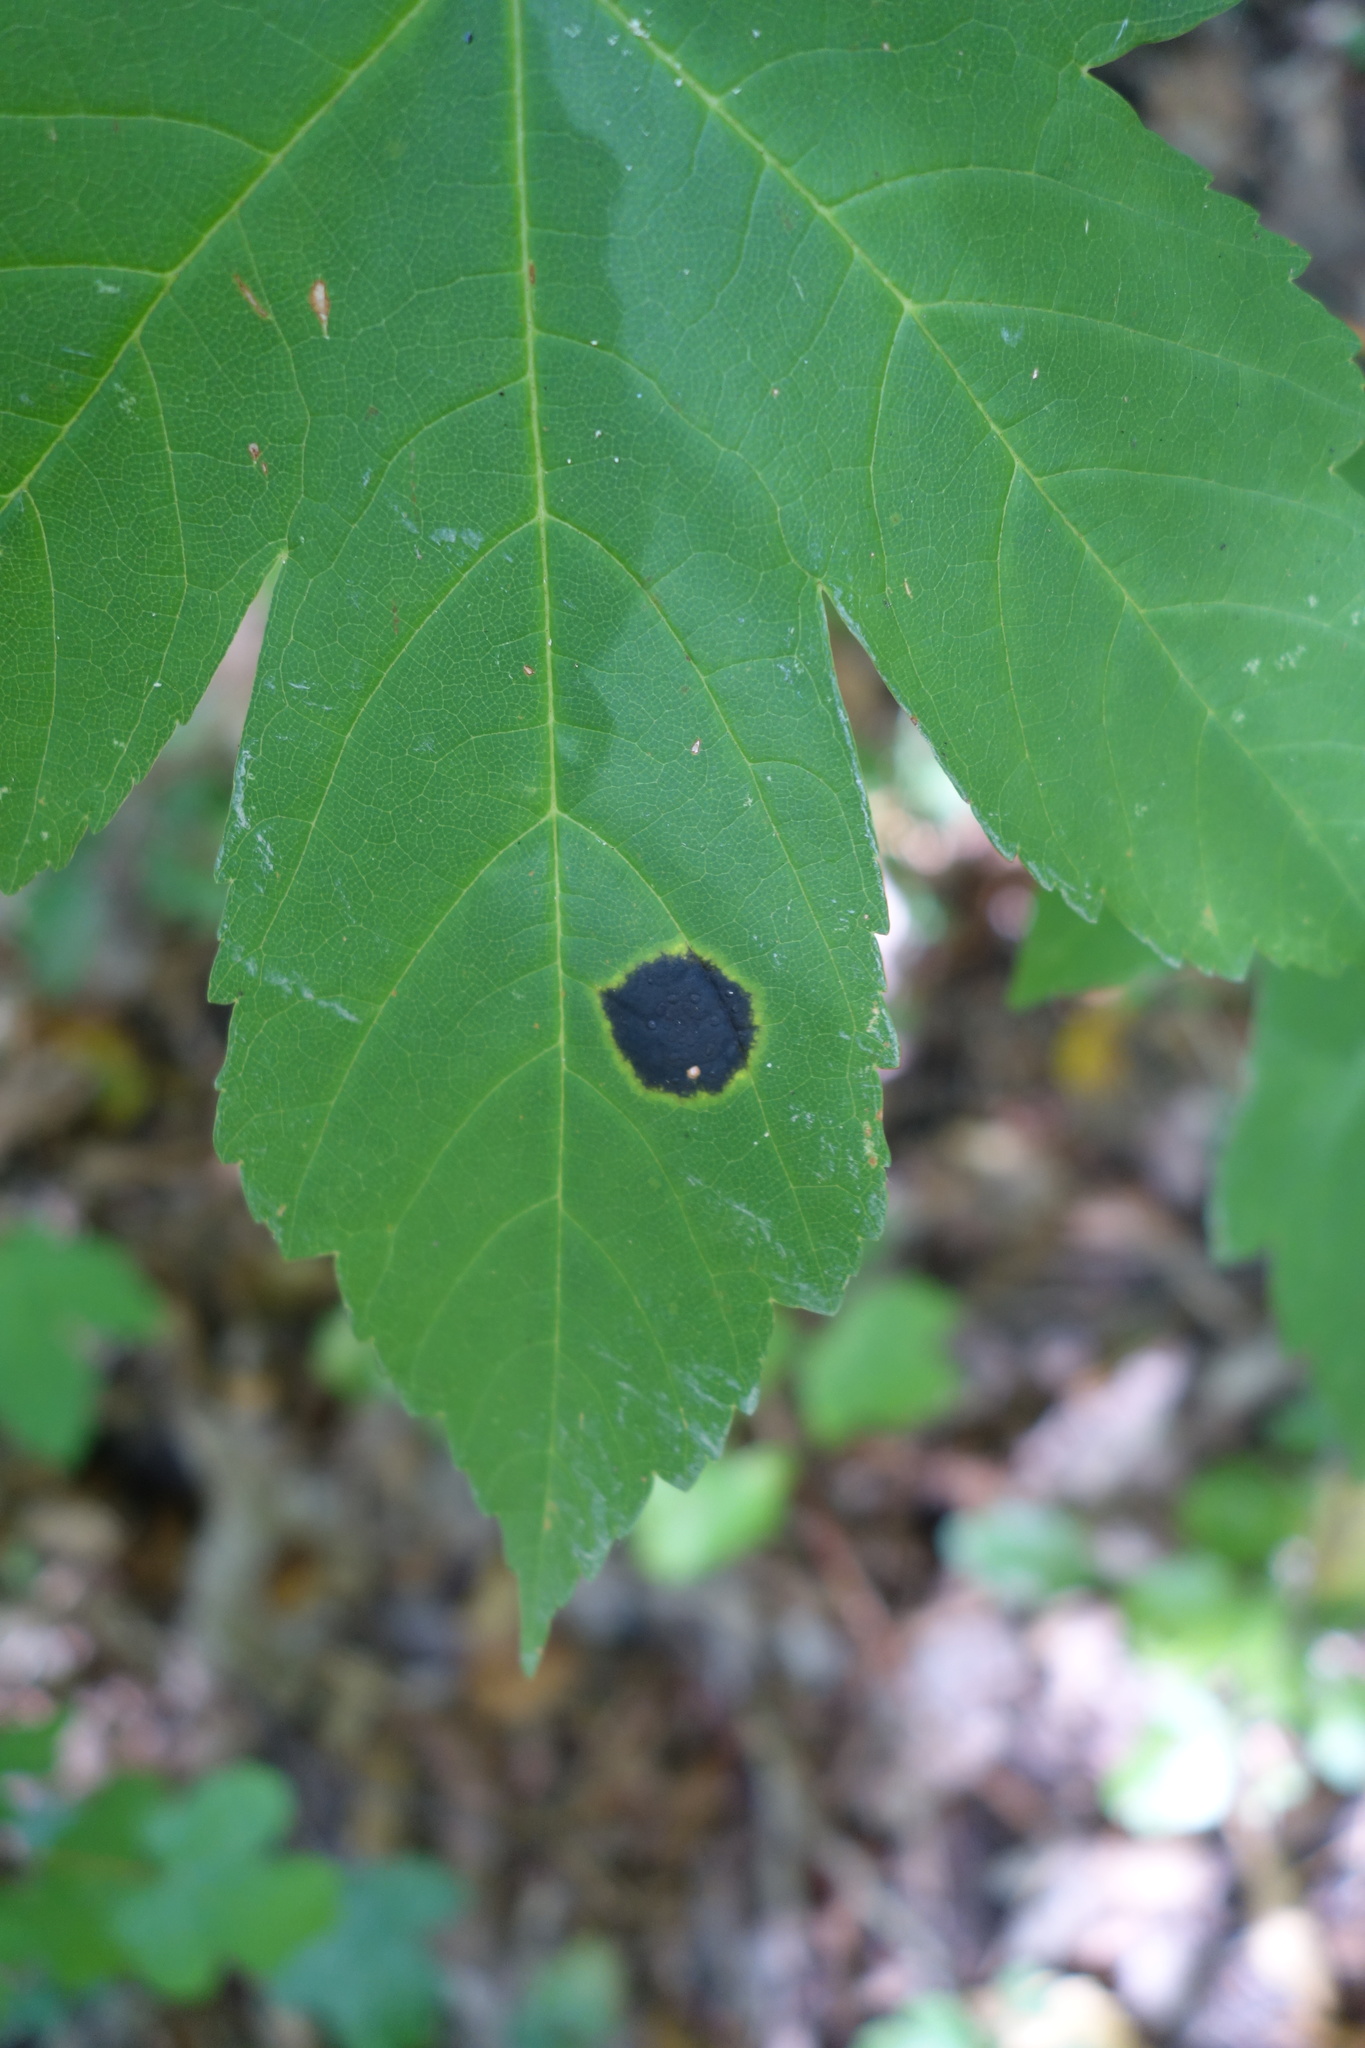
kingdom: Fungi
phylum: Ascomycota
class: Leotiomycetes
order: Rhytismatales
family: Rhytismataceae
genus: Rhytisma
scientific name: Rhytisma acerinum
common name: European tar spot
